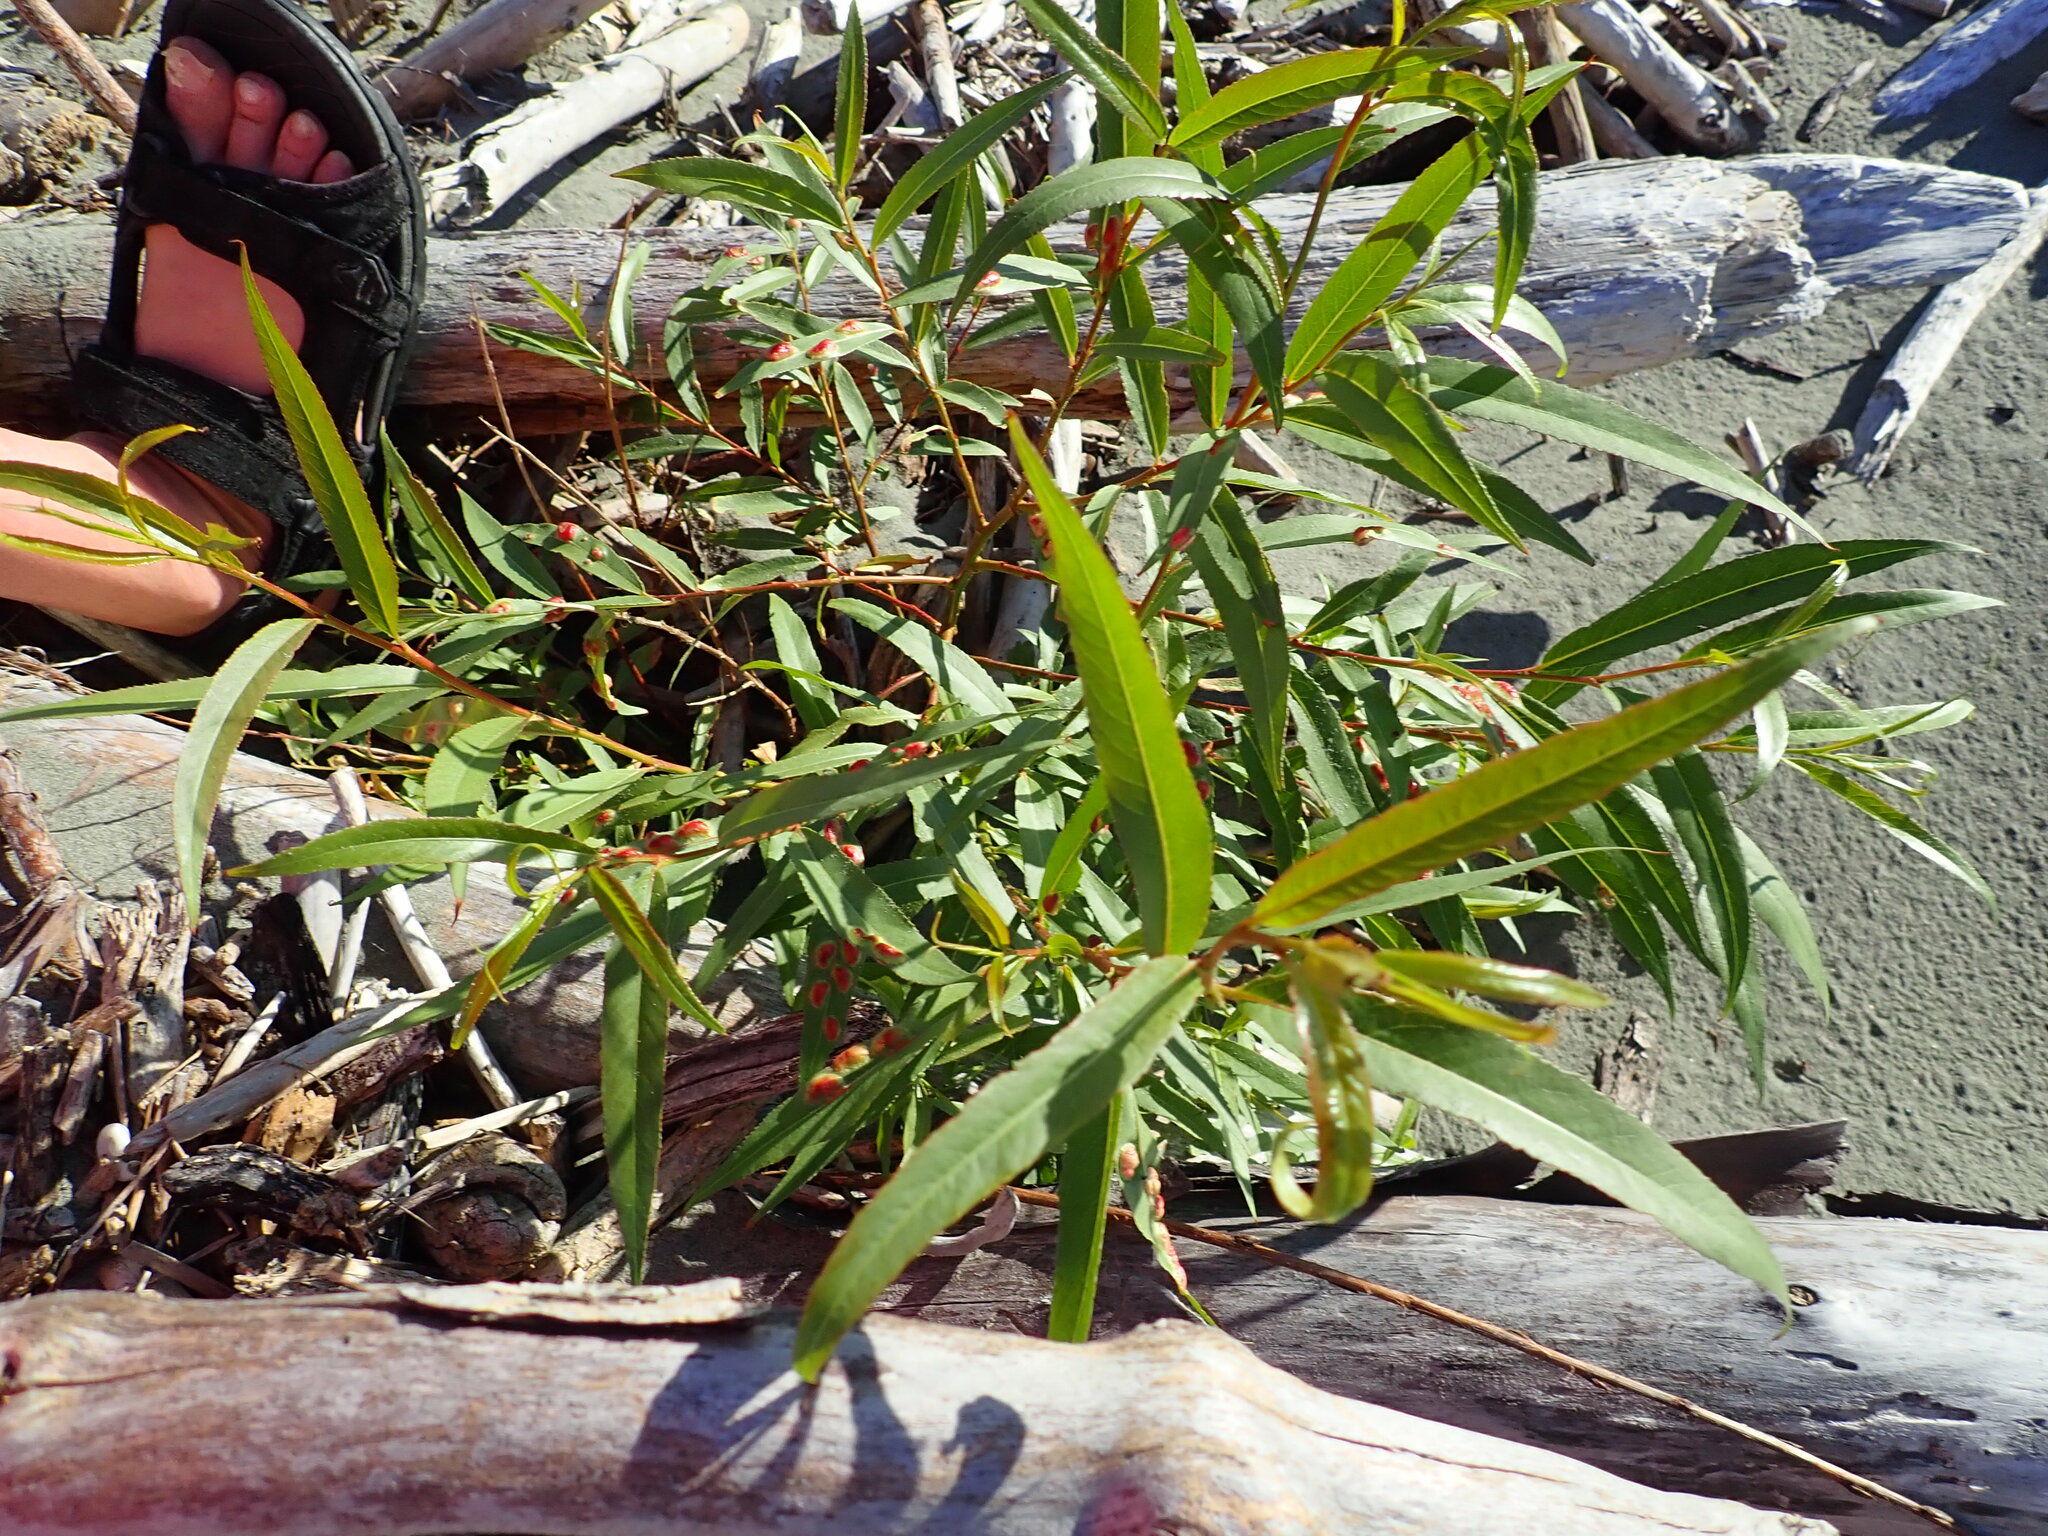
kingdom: Plantae
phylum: Tracheophyta
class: Magnoliopsida
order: Malpighiales
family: Salicaceae
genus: Salix
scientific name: Salix alba
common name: White willow
